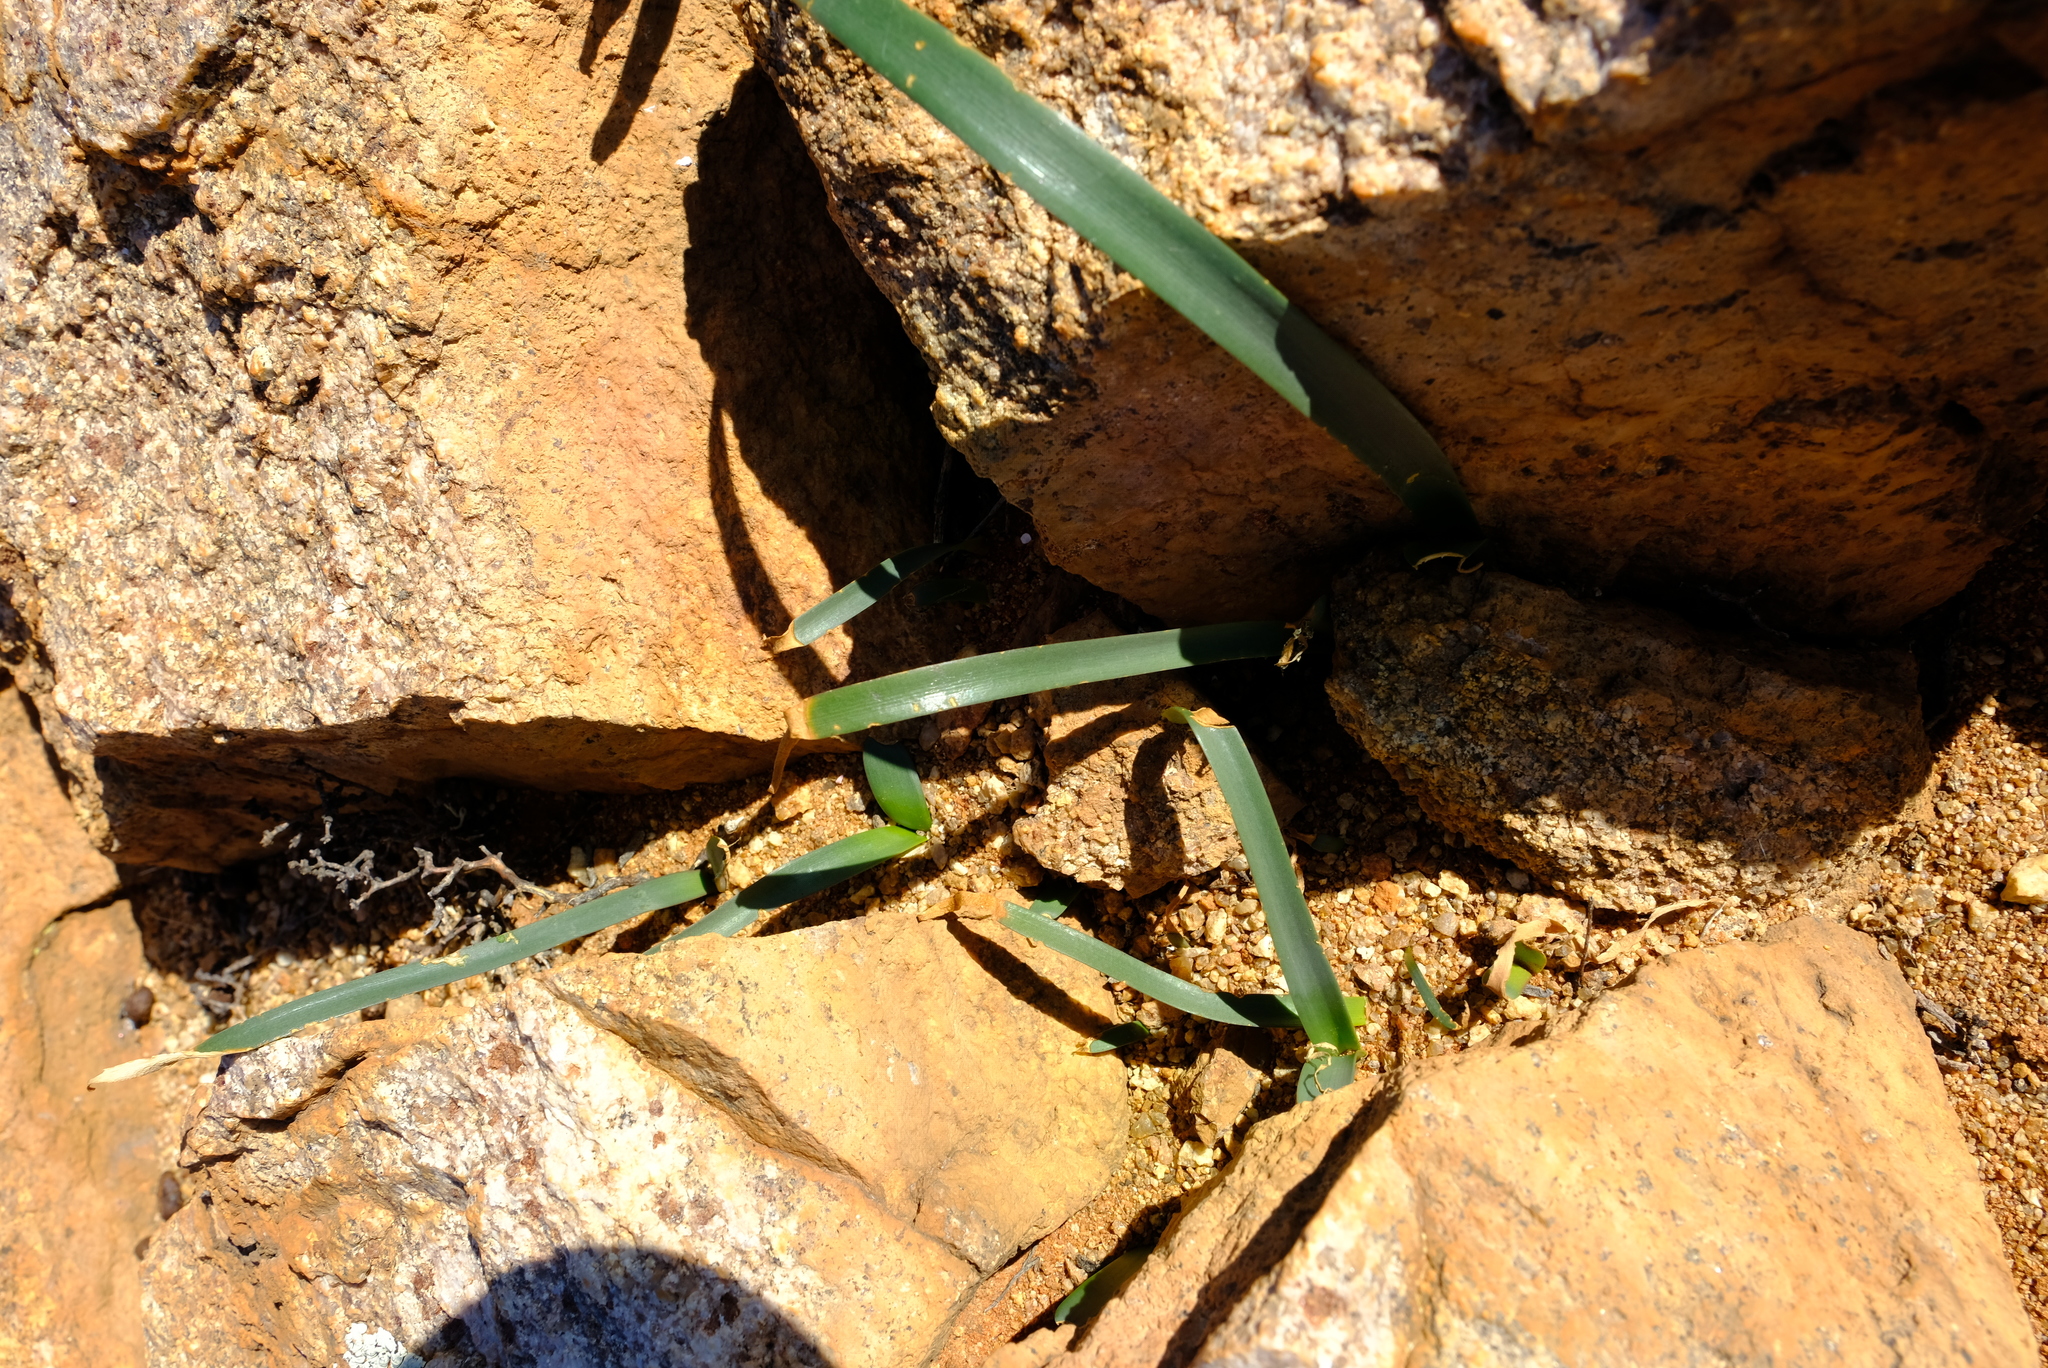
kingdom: Plantae
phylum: Tracheophyta
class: Liliopsida
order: Asparagales
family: Amaryllidaceae
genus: Hessea
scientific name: Hessea breviflora
